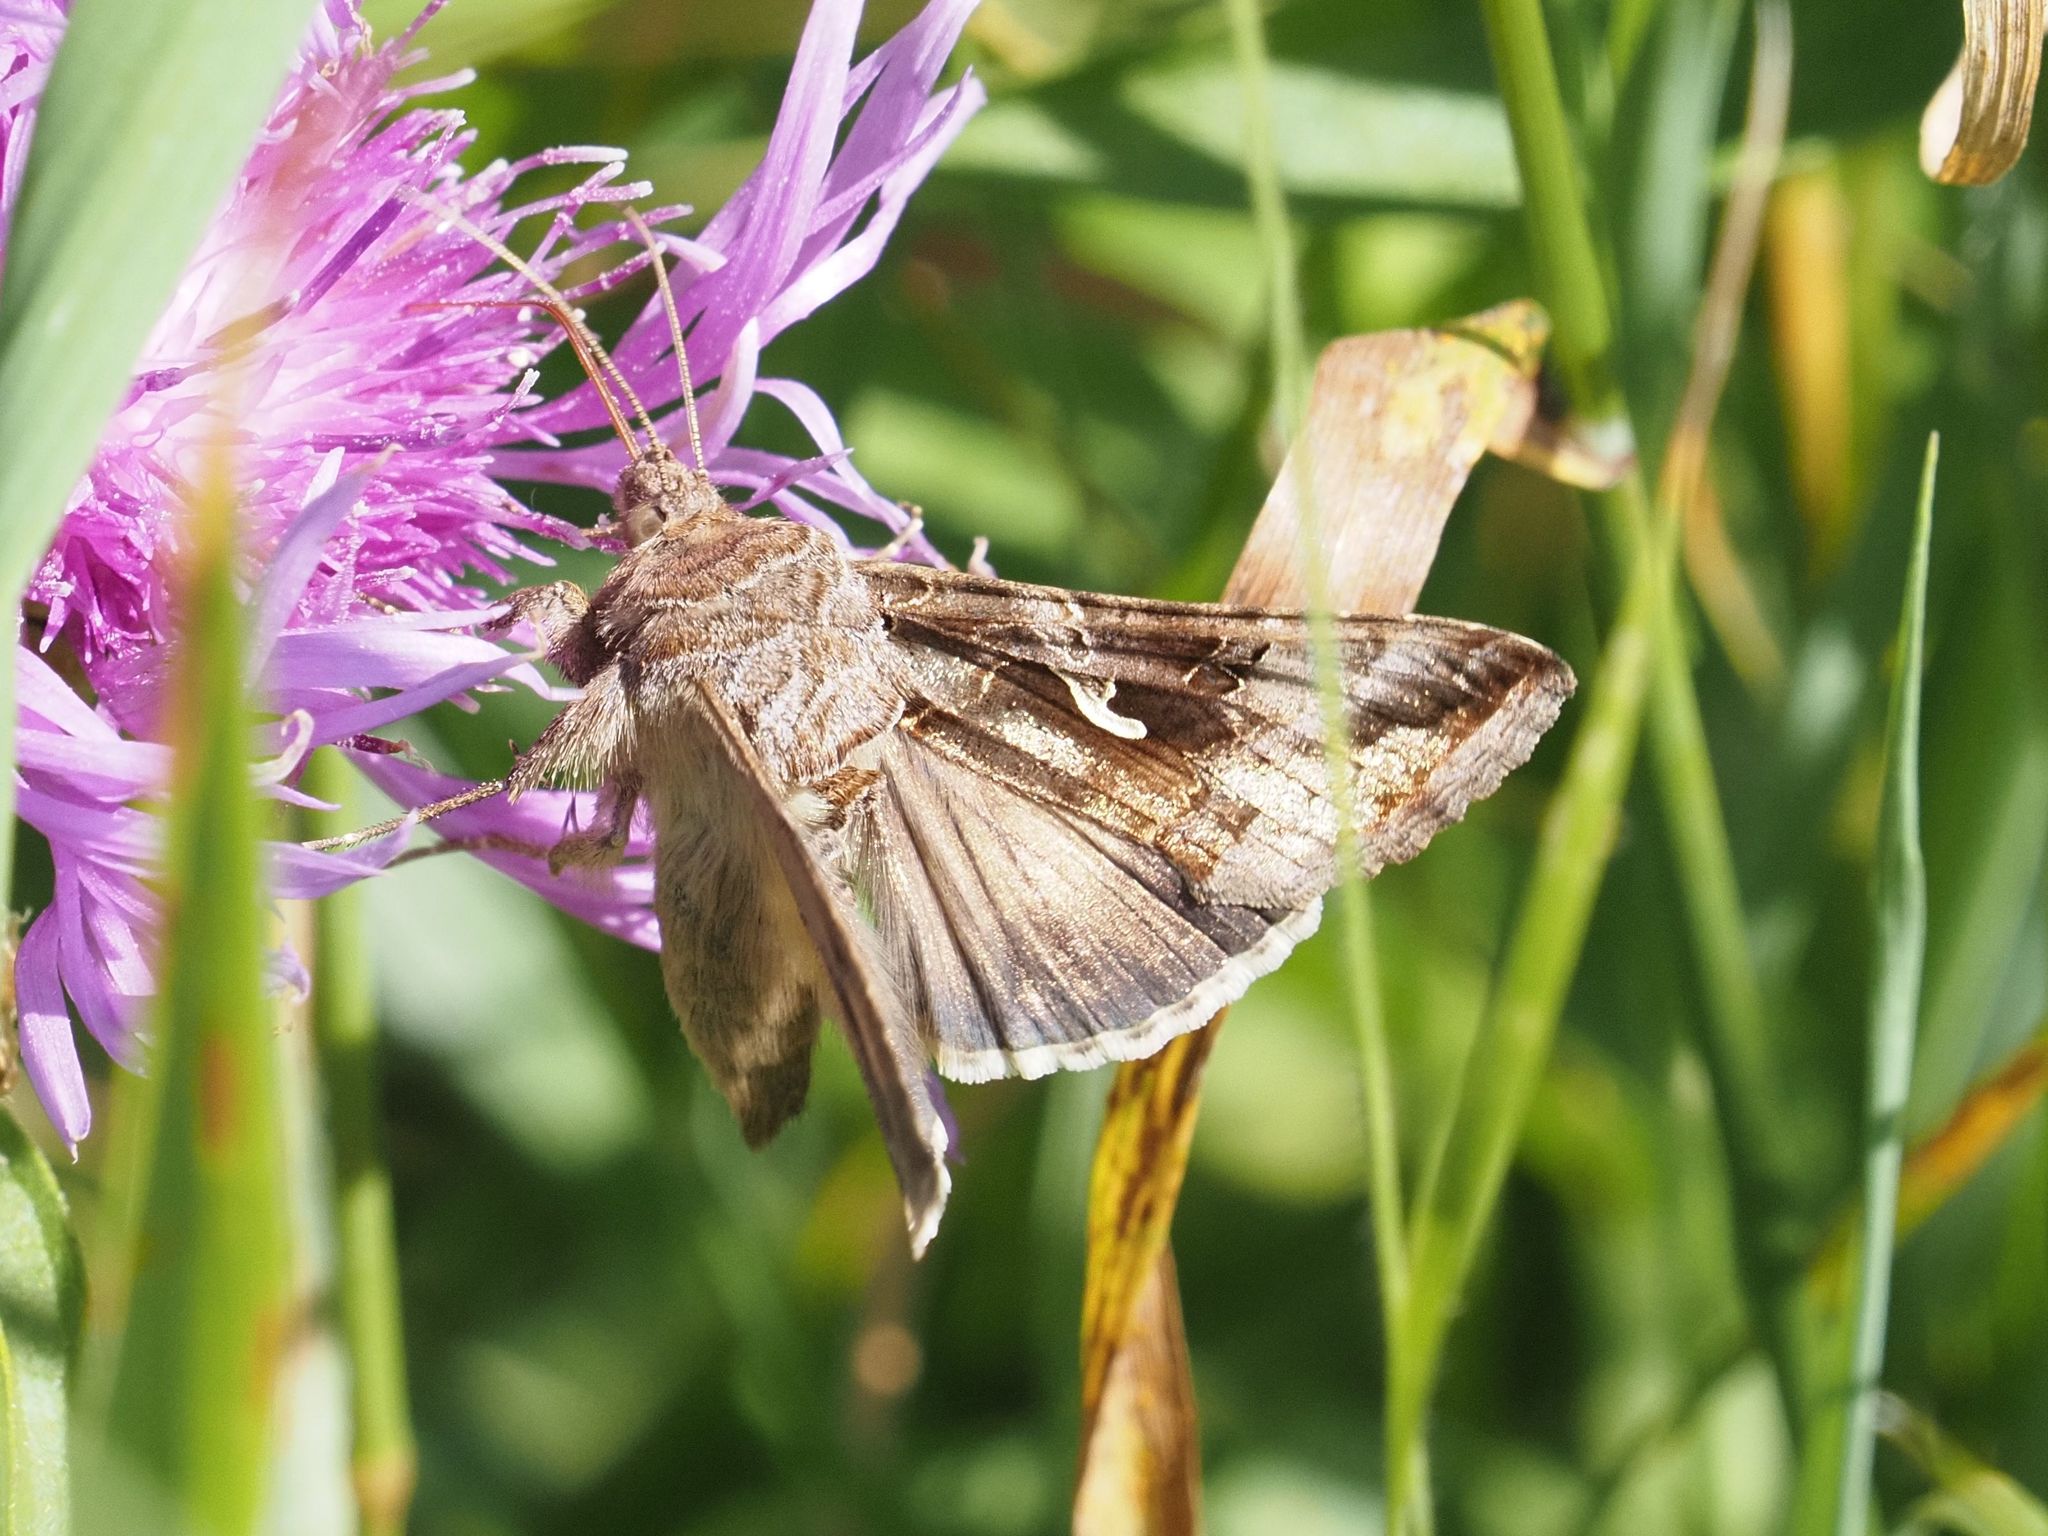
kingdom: Animalia
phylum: Arthropoda
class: Insecta
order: Lepidoptera
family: Noctuidae
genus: Autographa
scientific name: Autographa gamma
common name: Silver y
